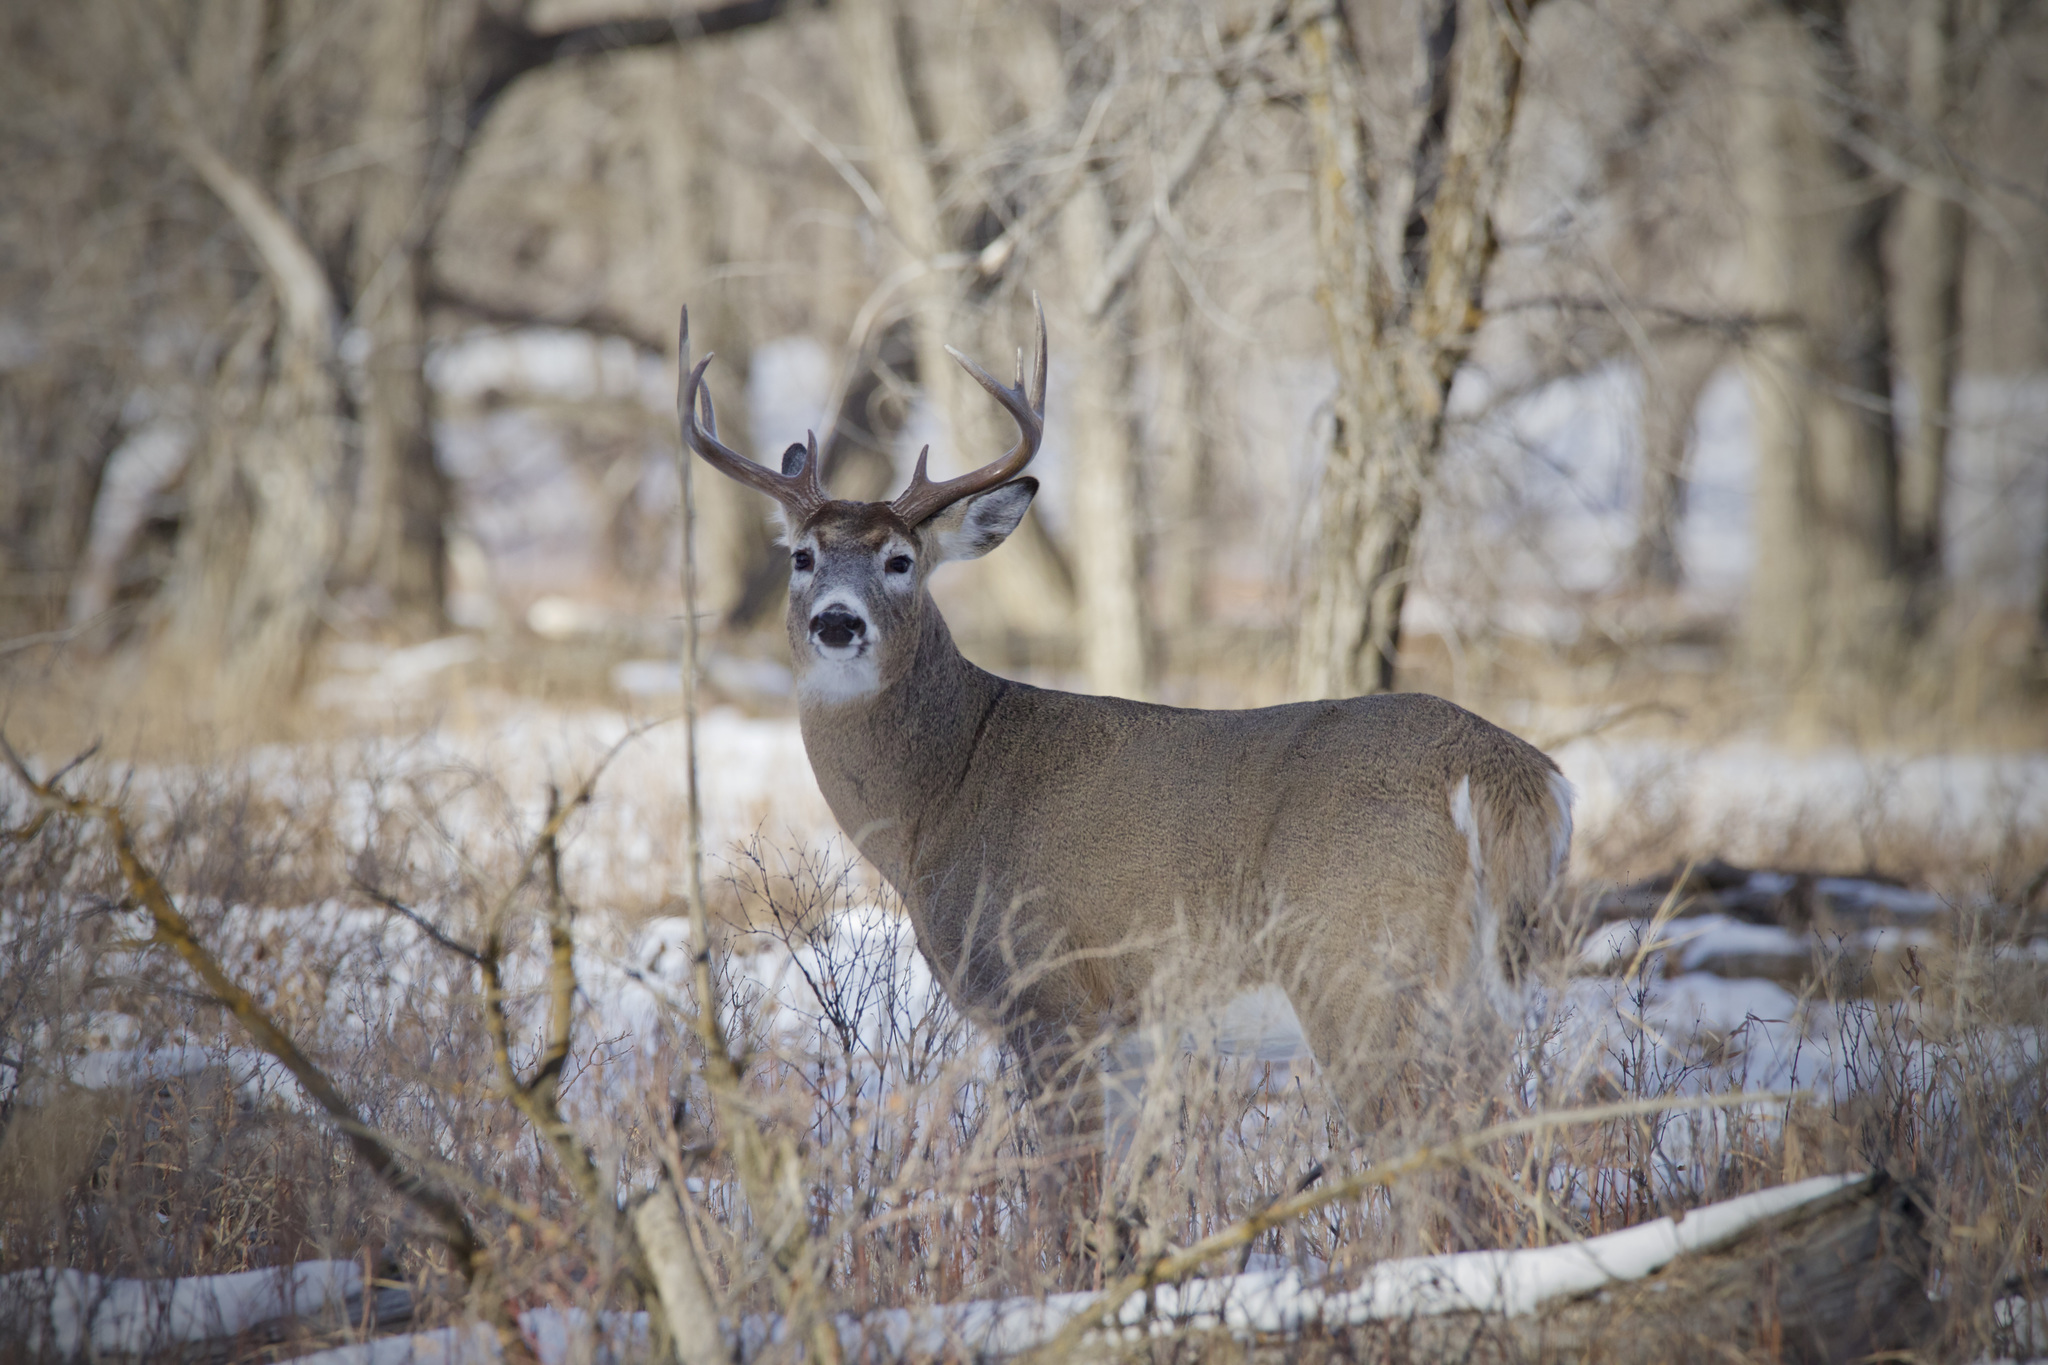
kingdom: Animalia
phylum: Chordata
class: Mammalia
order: Artiodactyla
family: Cervidae
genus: Odocoileus
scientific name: Odocoileus virginianus
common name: White-tailed deer
